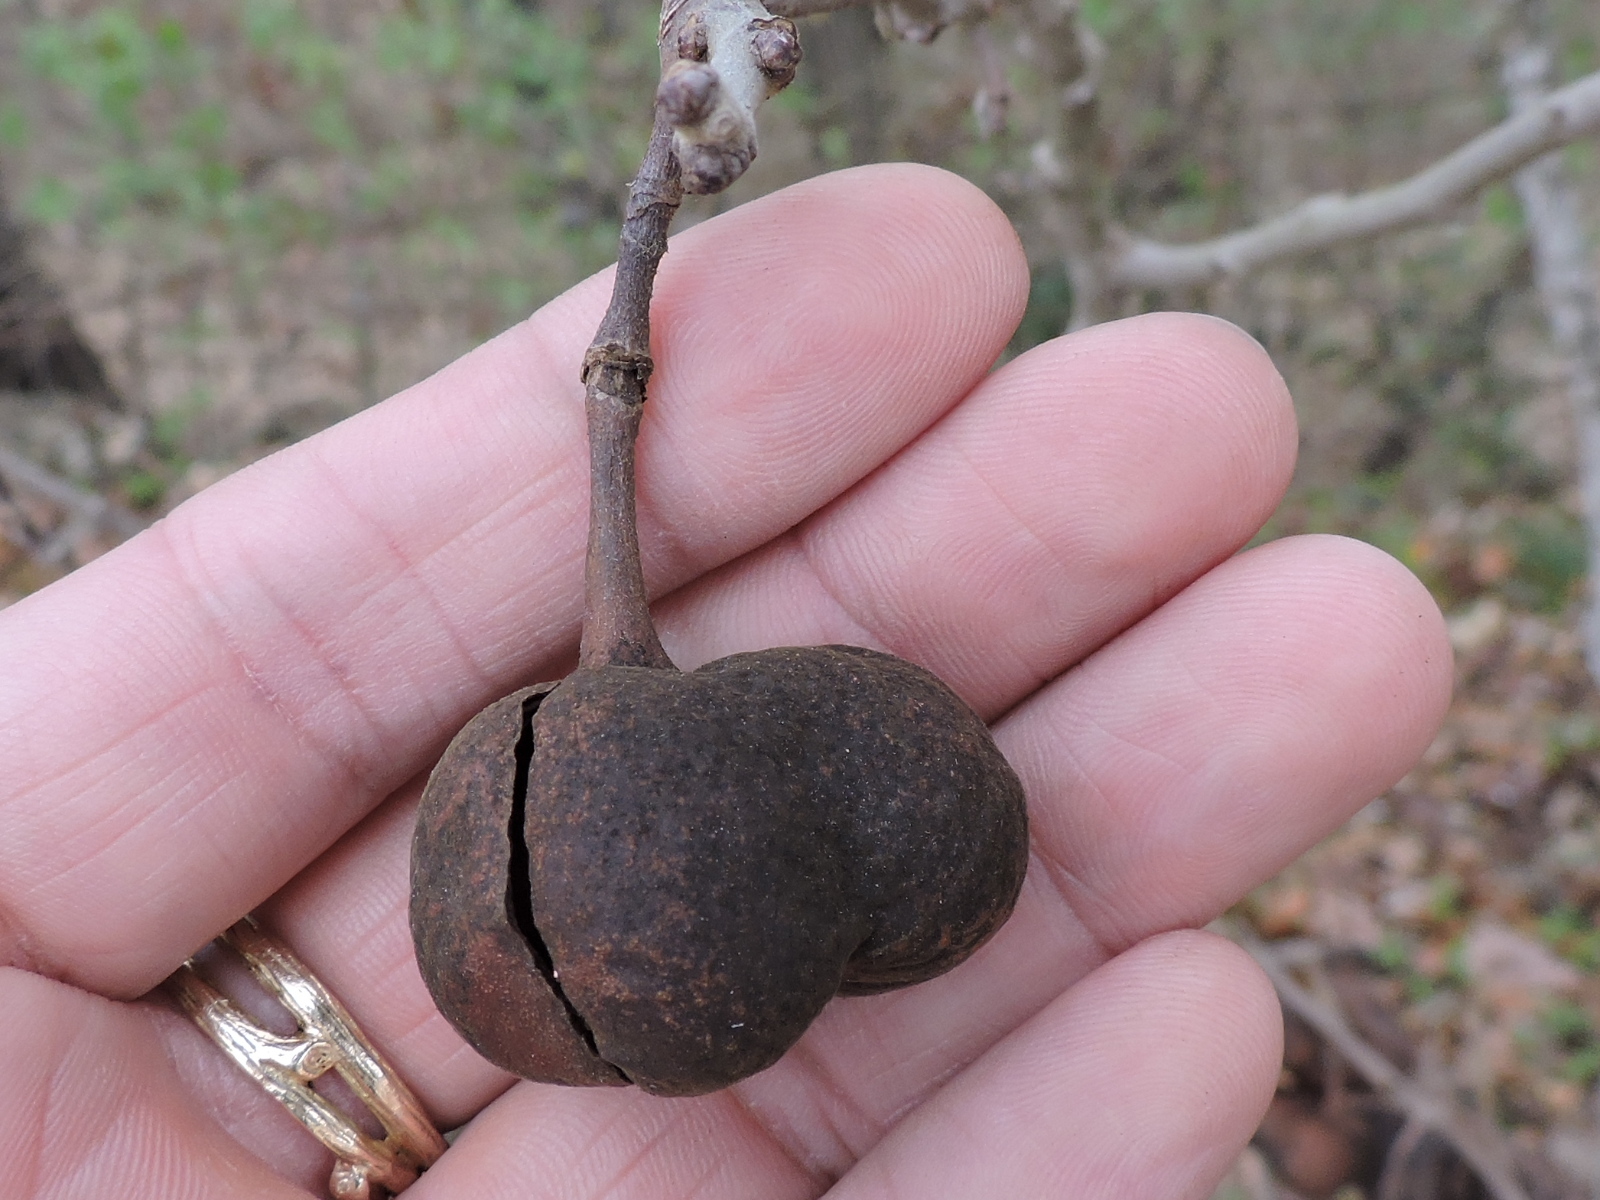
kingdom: Plantae
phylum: Tracheophyta
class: Magnoliopsida
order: Sapindales
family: Sapindaceae
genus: Ungnadia
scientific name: Ungnadia speciosa
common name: Texas-buckeye
